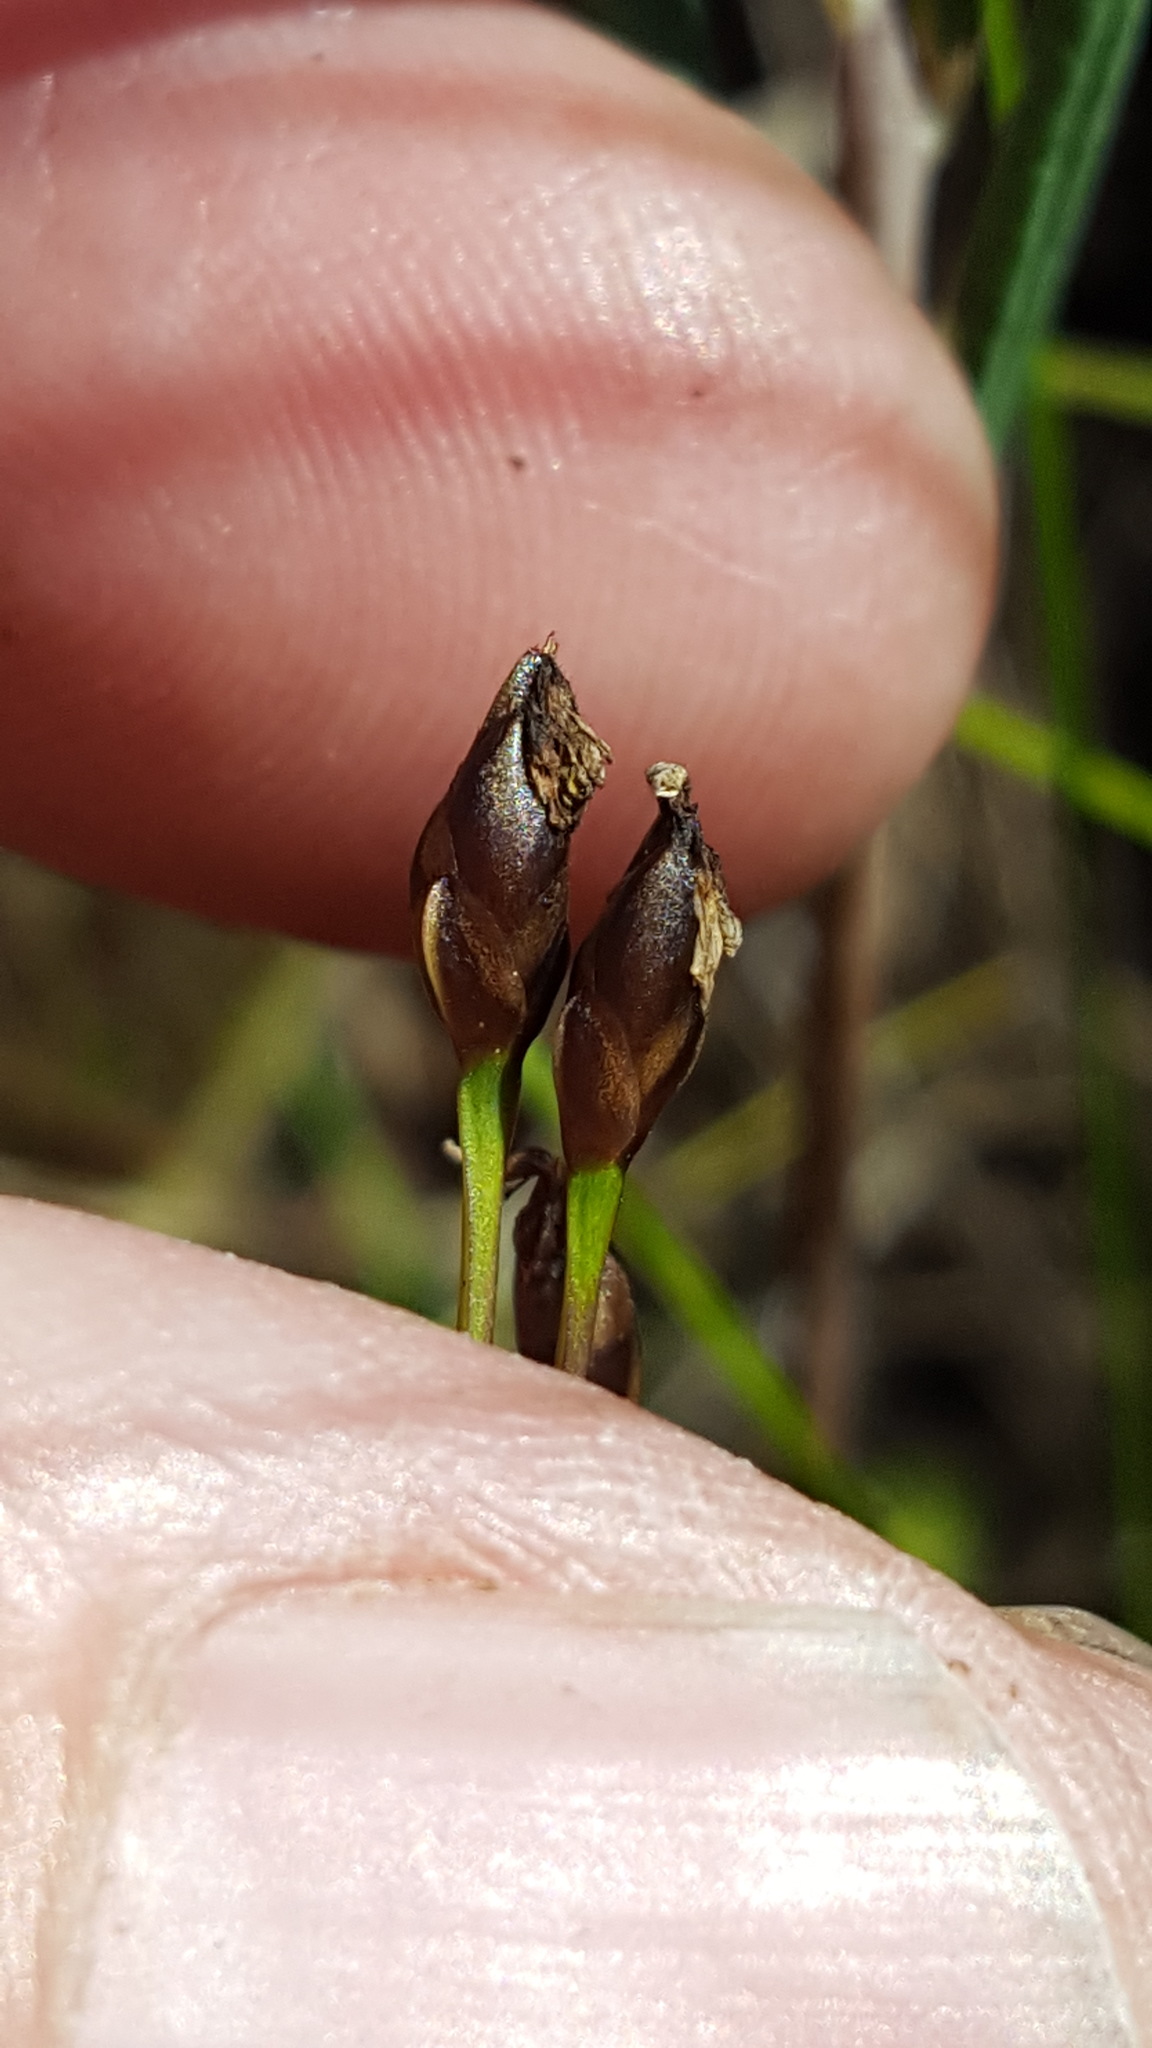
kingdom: Plantae
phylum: Tracheophyta
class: Liliopsida
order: Poales
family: Xyridaceae
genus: Xyris
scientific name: Xyris montana
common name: Northern yellow-eyed-grass
